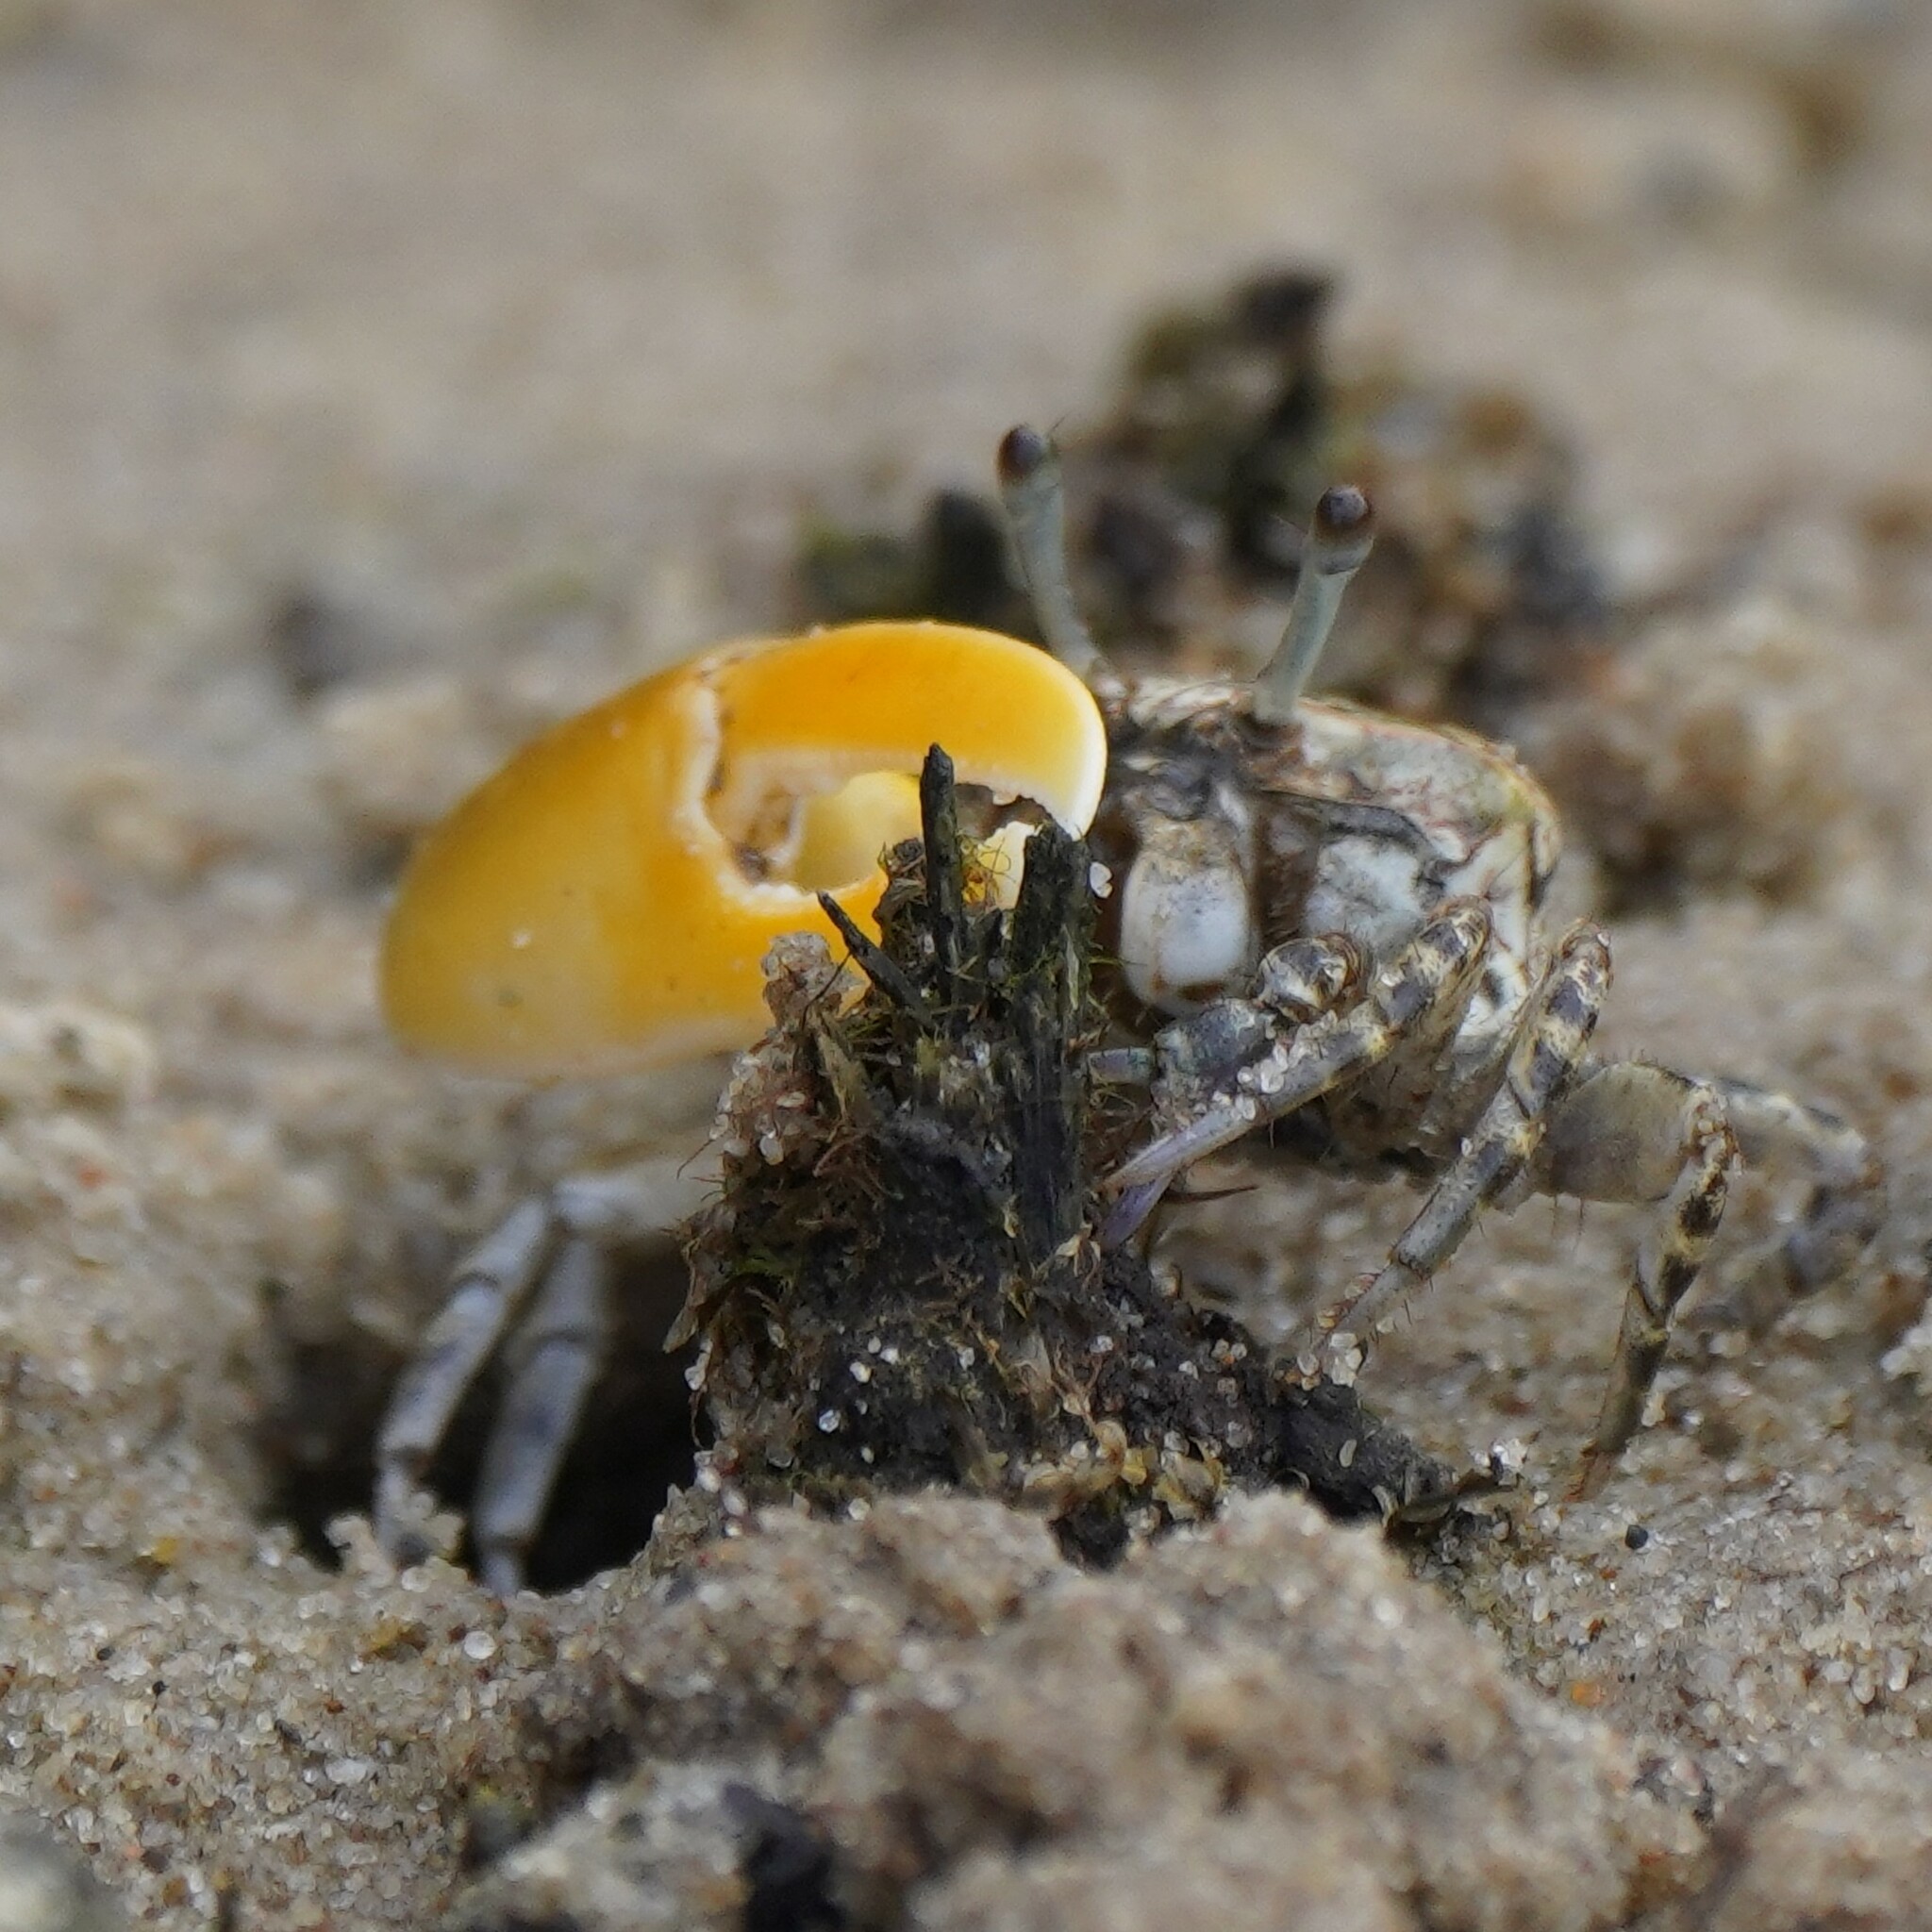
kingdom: Animalia
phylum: Arthropoda
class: Malacostraca
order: Decapoda
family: Ocypodidae
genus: Austruca
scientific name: Austruca perplexa
